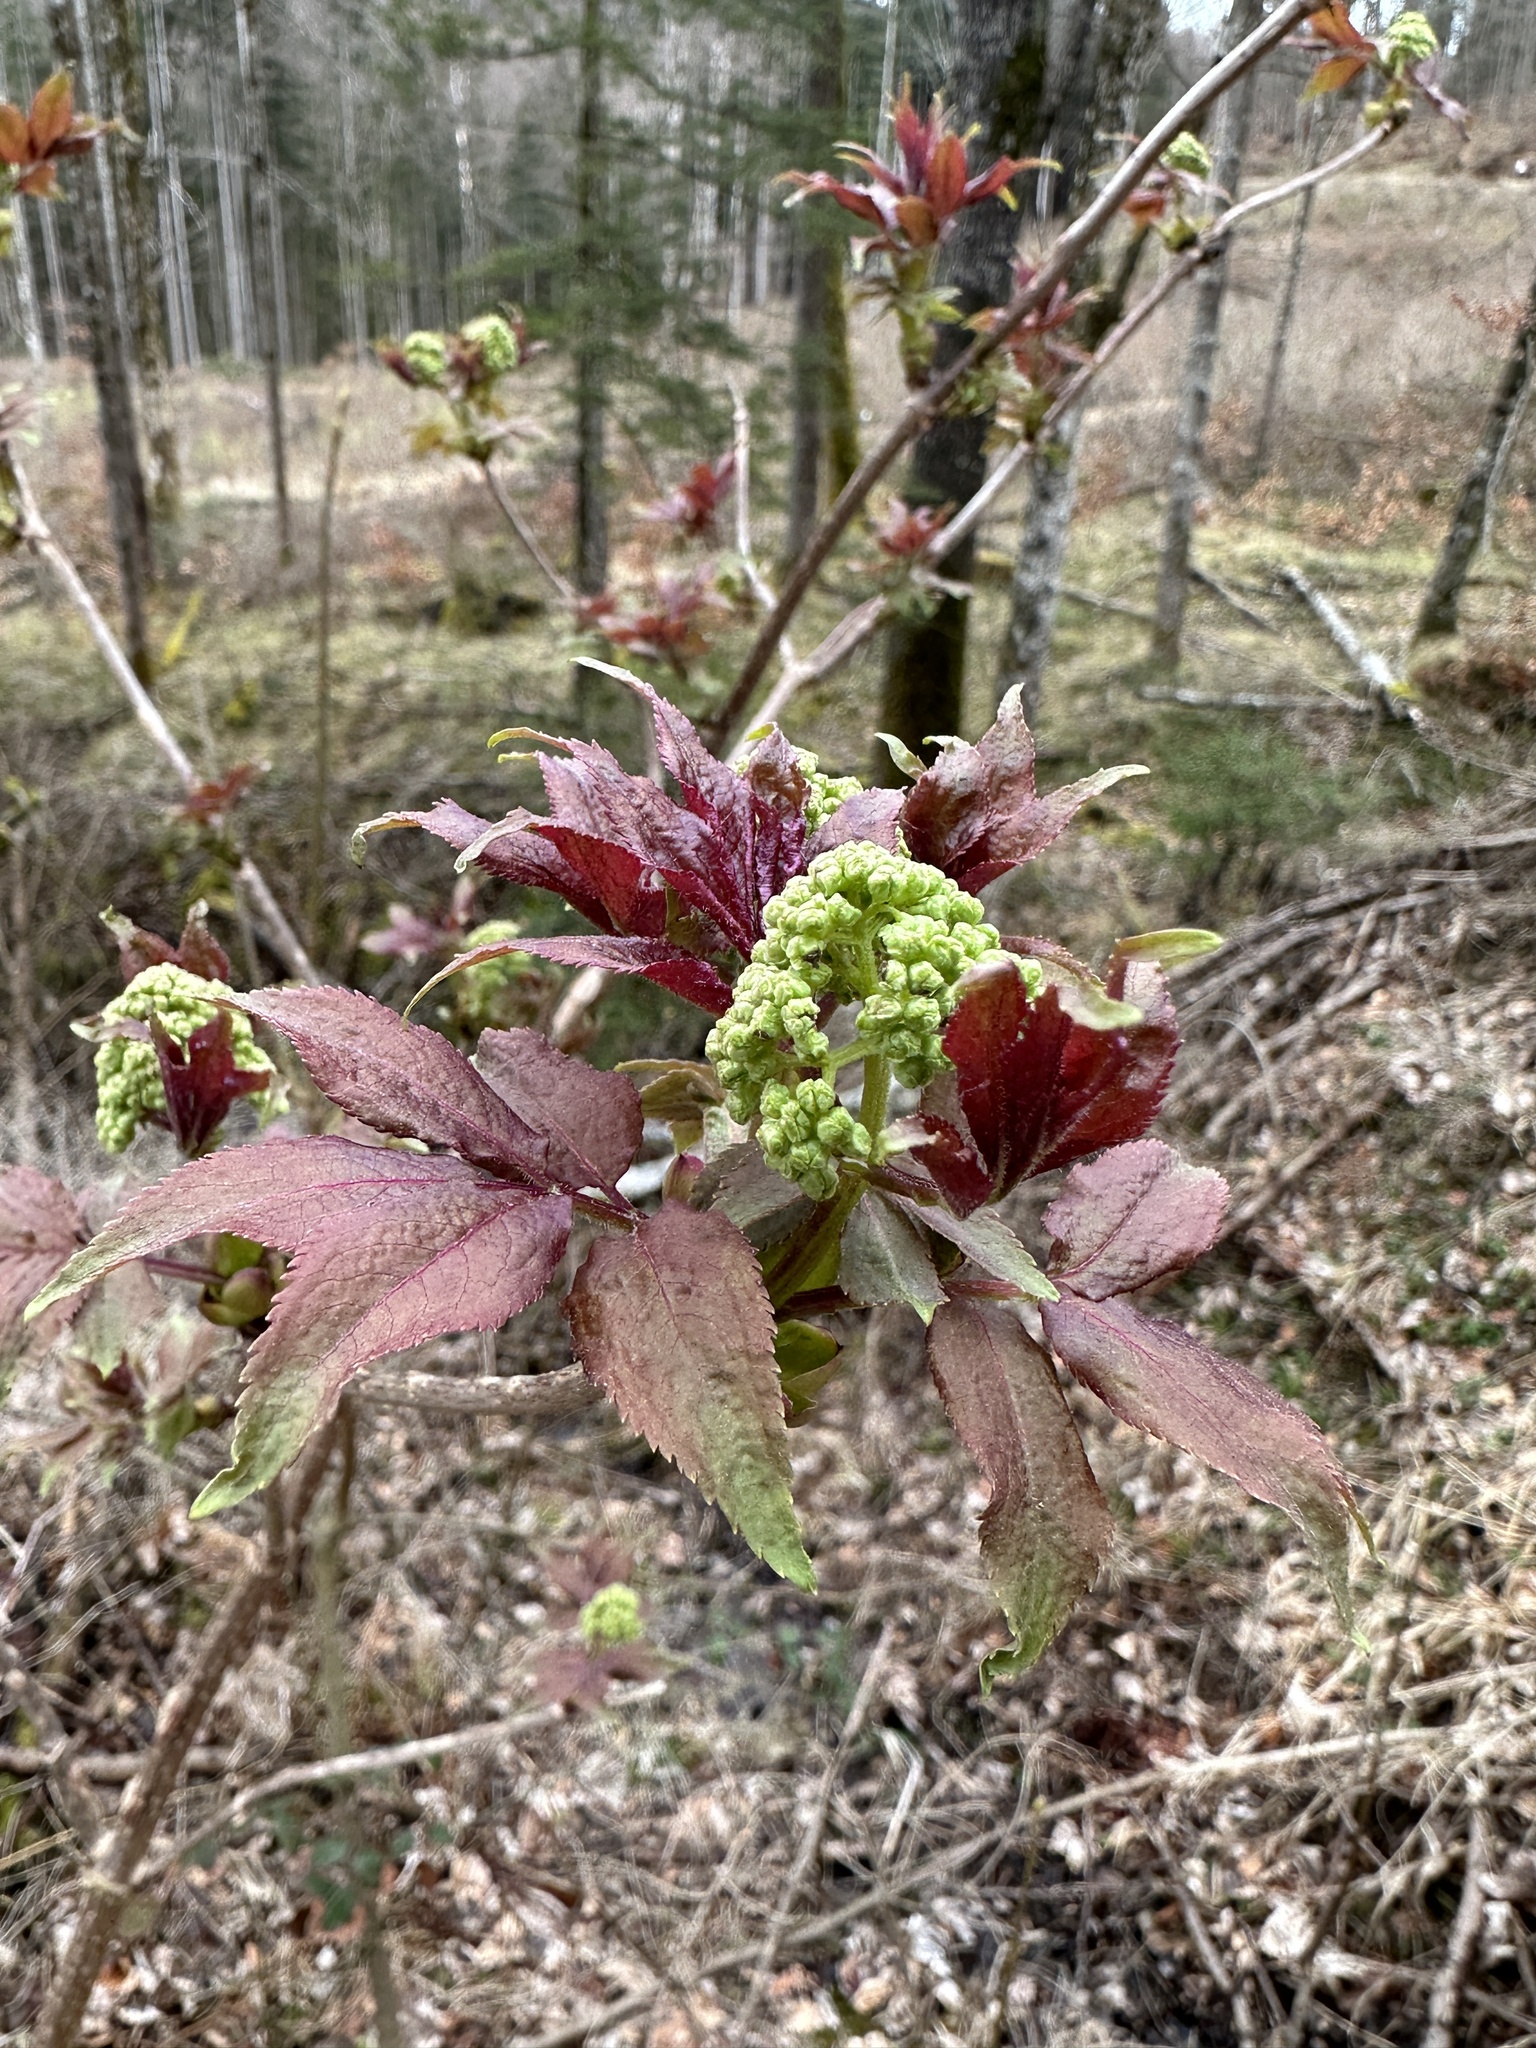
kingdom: Plantae
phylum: Tracheophyta
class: Magnoliopsida
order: Dipsacales
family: Viburnaceae
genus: Sambucus
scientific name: Sambucus racemosa
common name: Red-berried elder
